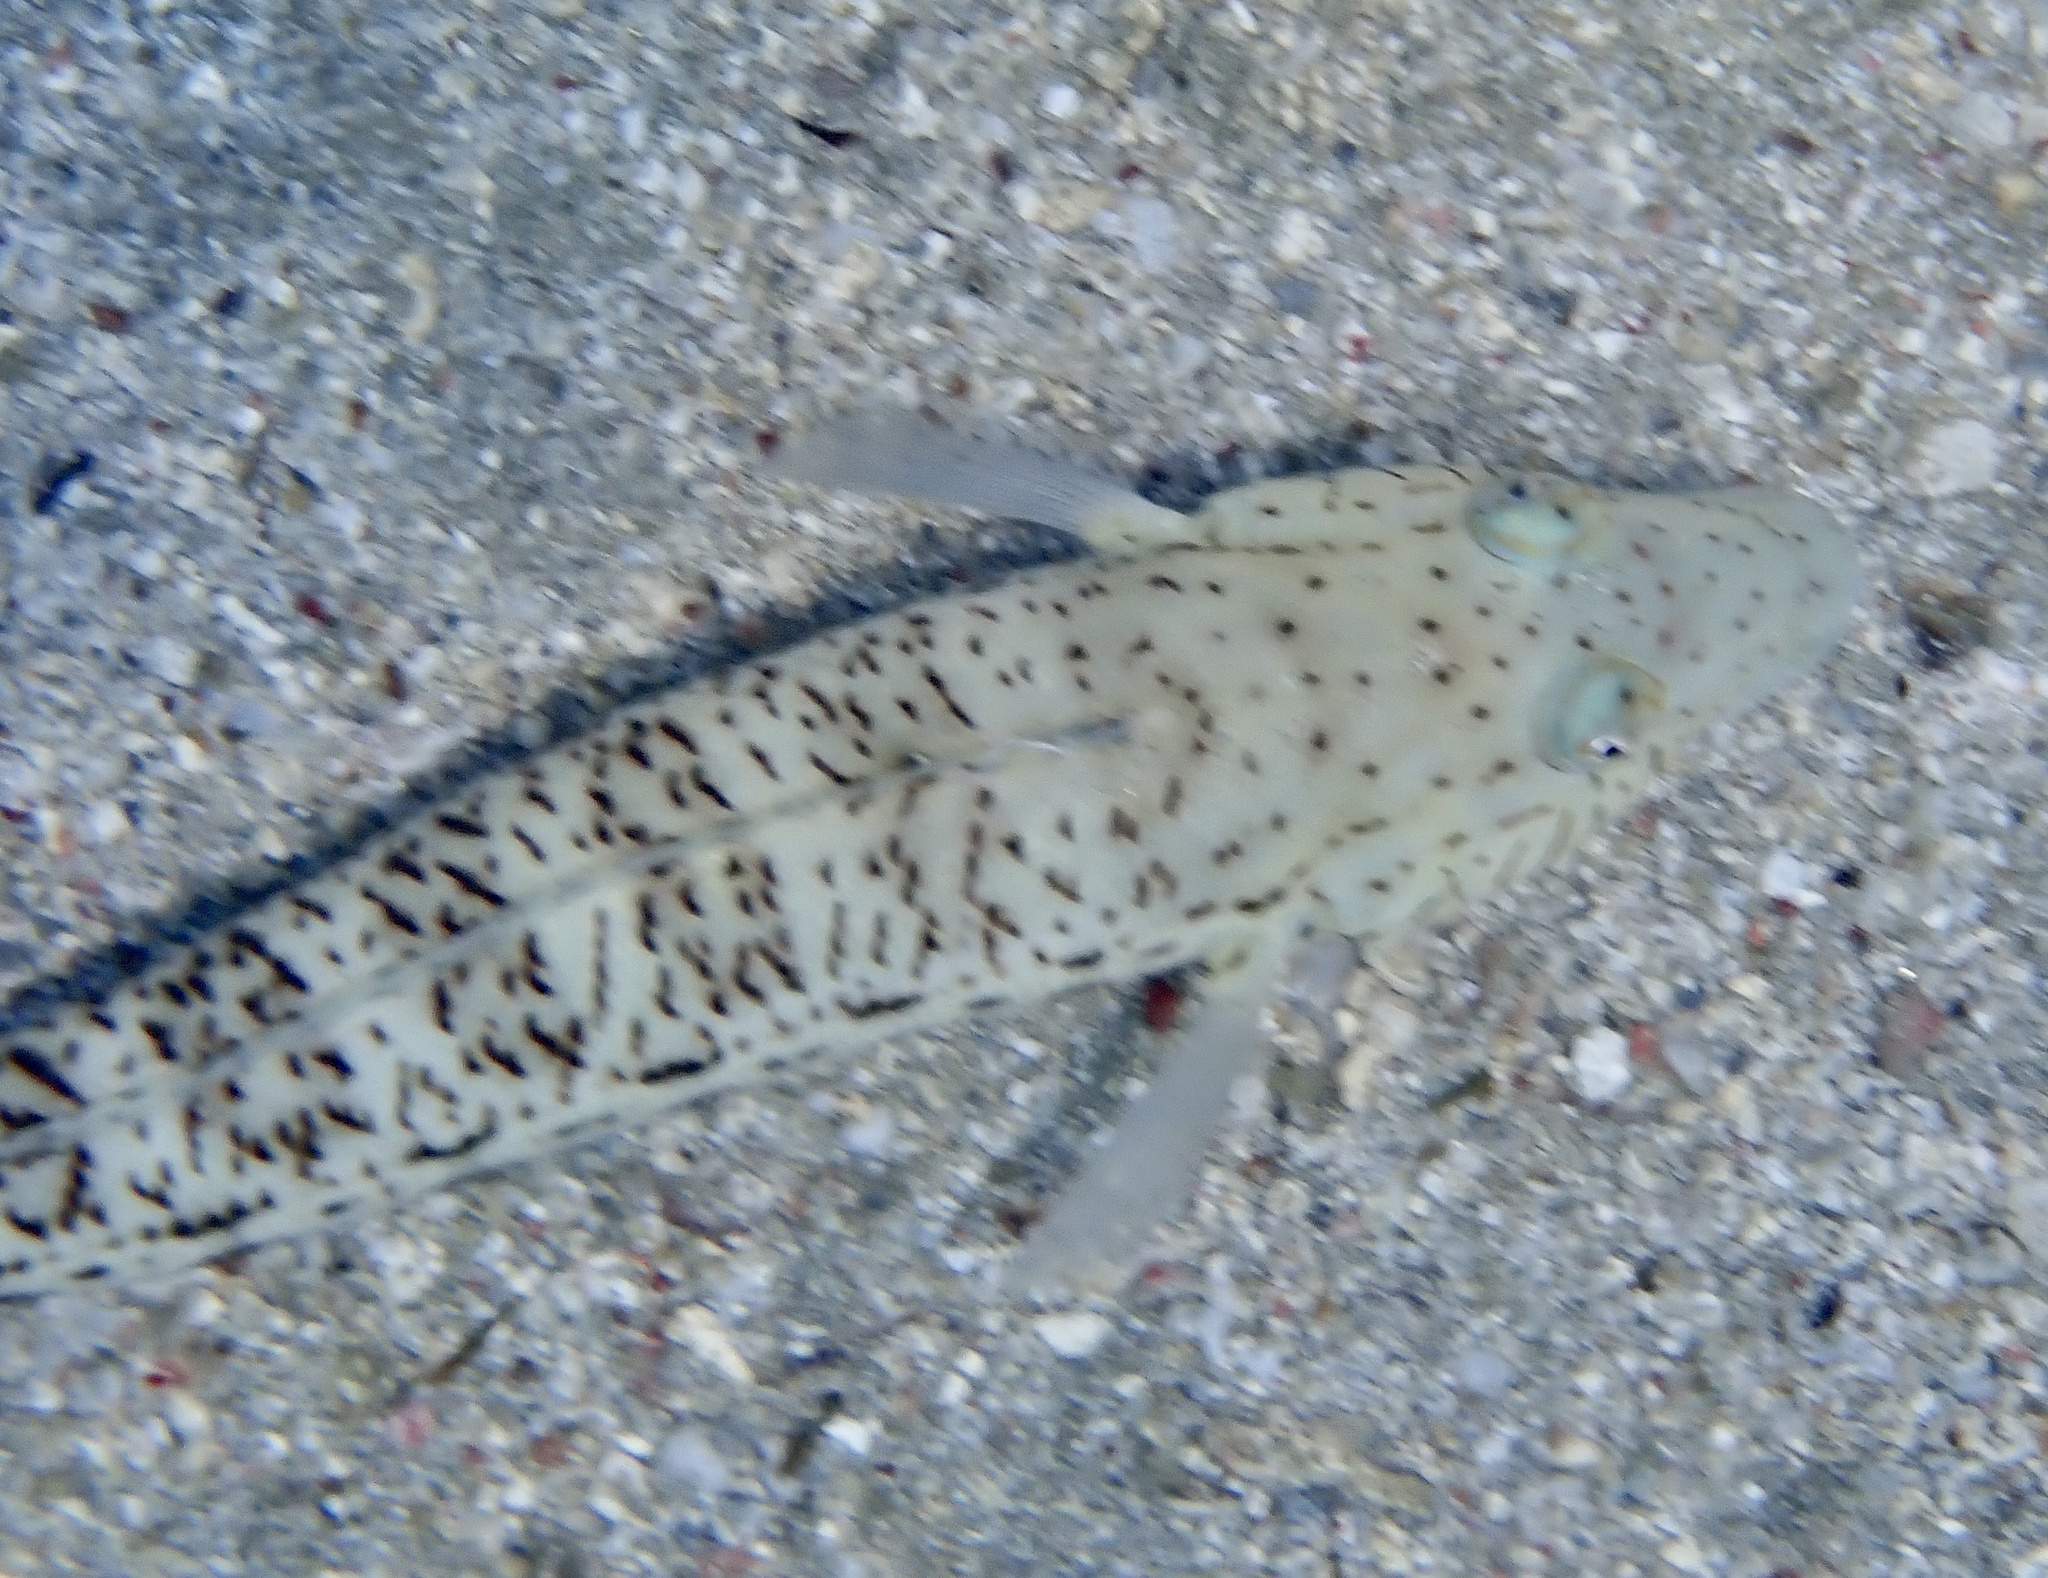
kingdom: Animalia
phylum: Chordata
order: Perciformes
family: Pinguipedidae
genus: Parapercis
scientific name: Parapercis hexophtalma
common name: Speckled sandperch
